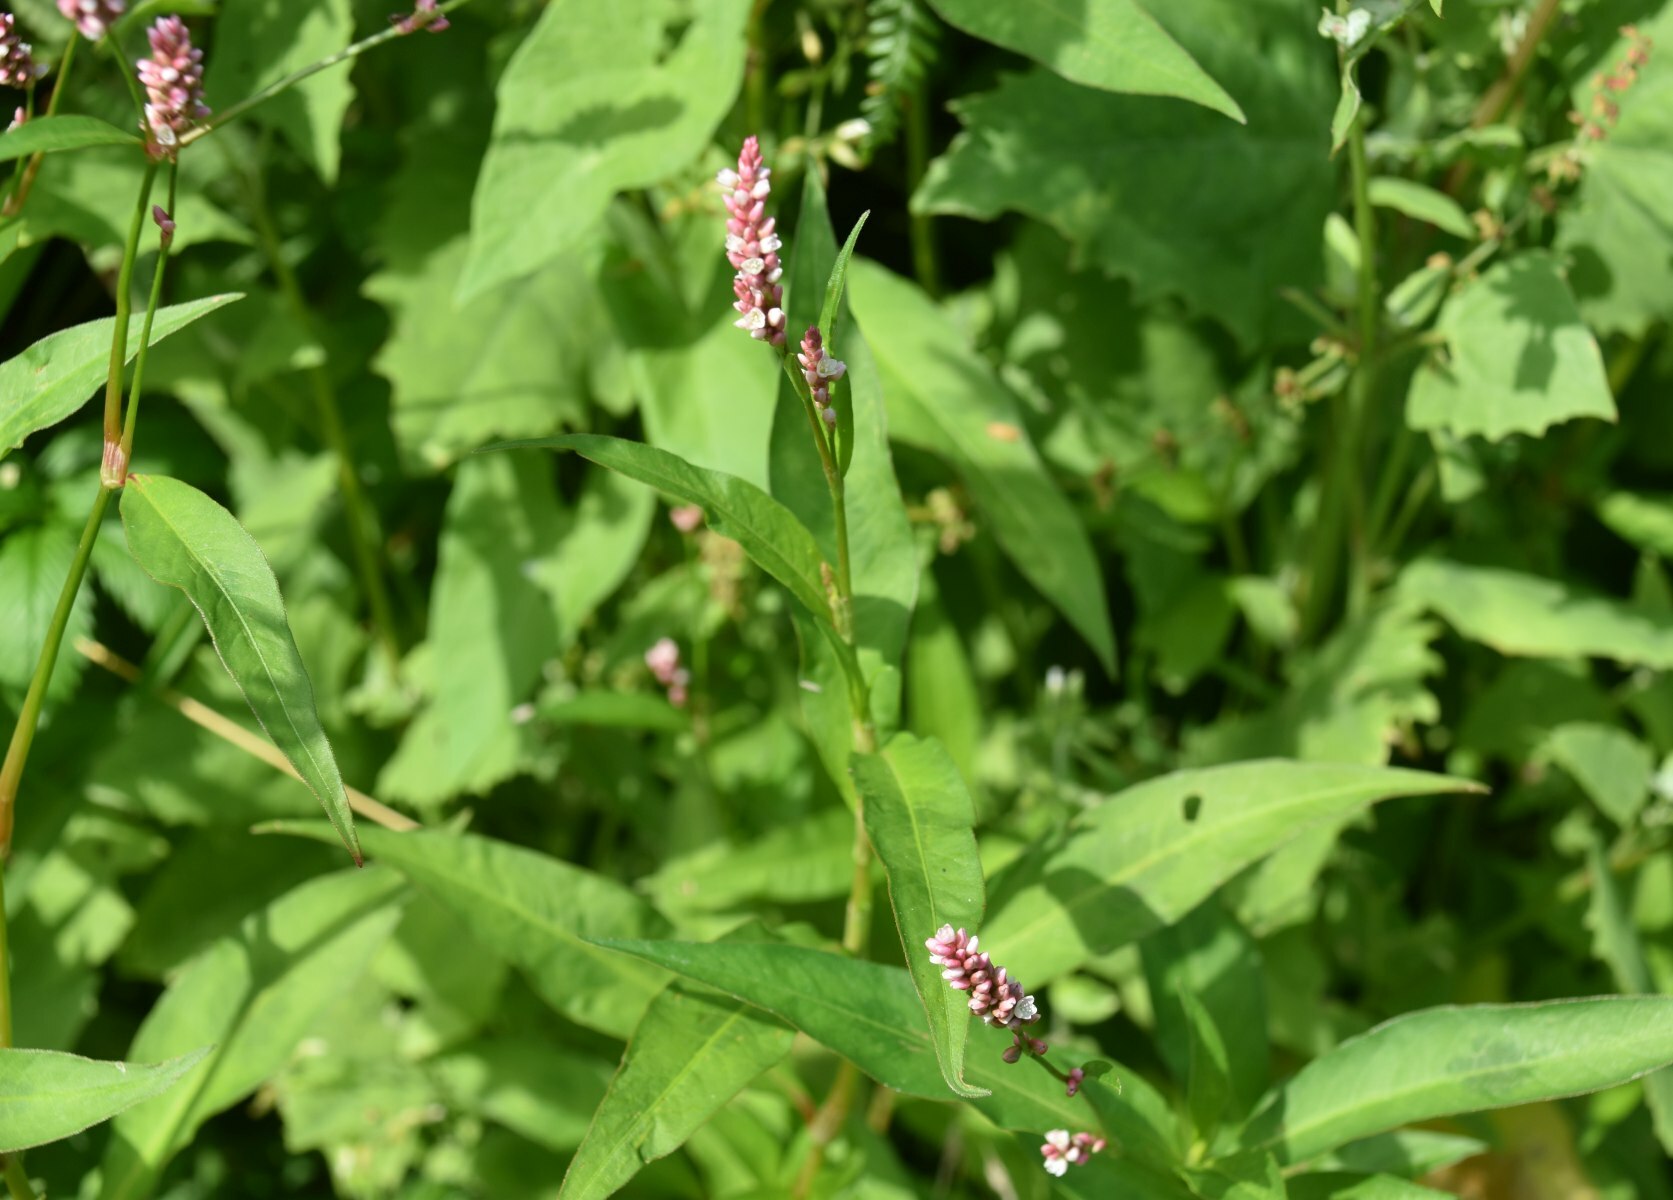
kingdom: Plantae
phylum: Tracheophyta
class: Magnoliopsida
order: Caryophyllales
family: Polygonaceae
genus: Persicaria
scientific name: Persicaria maculosa
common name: Redshank
